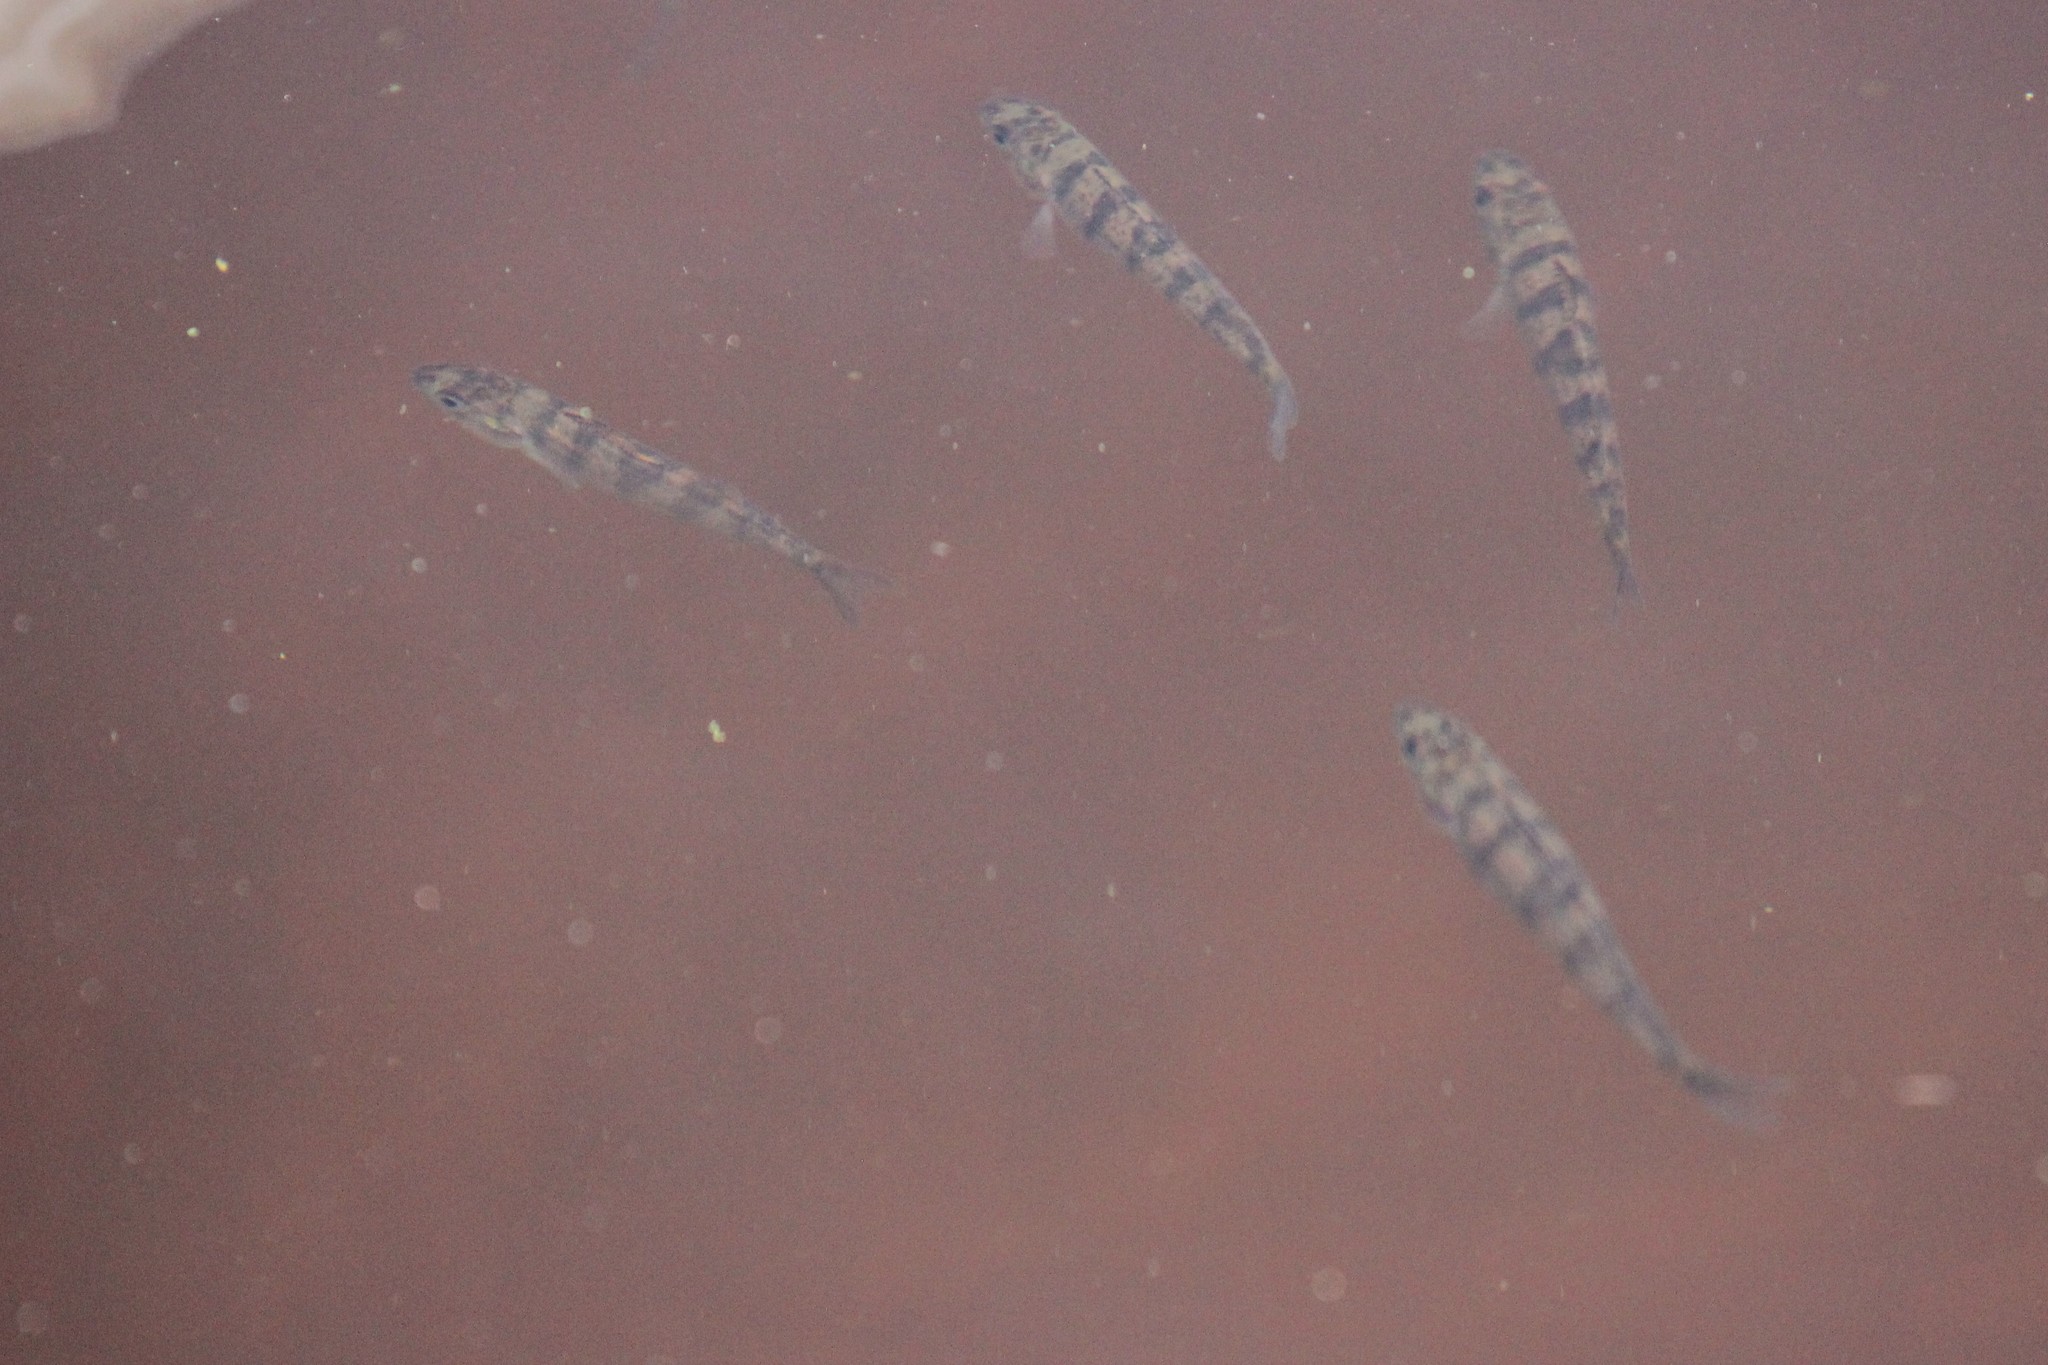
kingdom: Animalia
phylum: Chordata
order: Perciformes
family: Percidae
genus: Perca
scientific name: Perca flavescens
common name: Yellow perch
